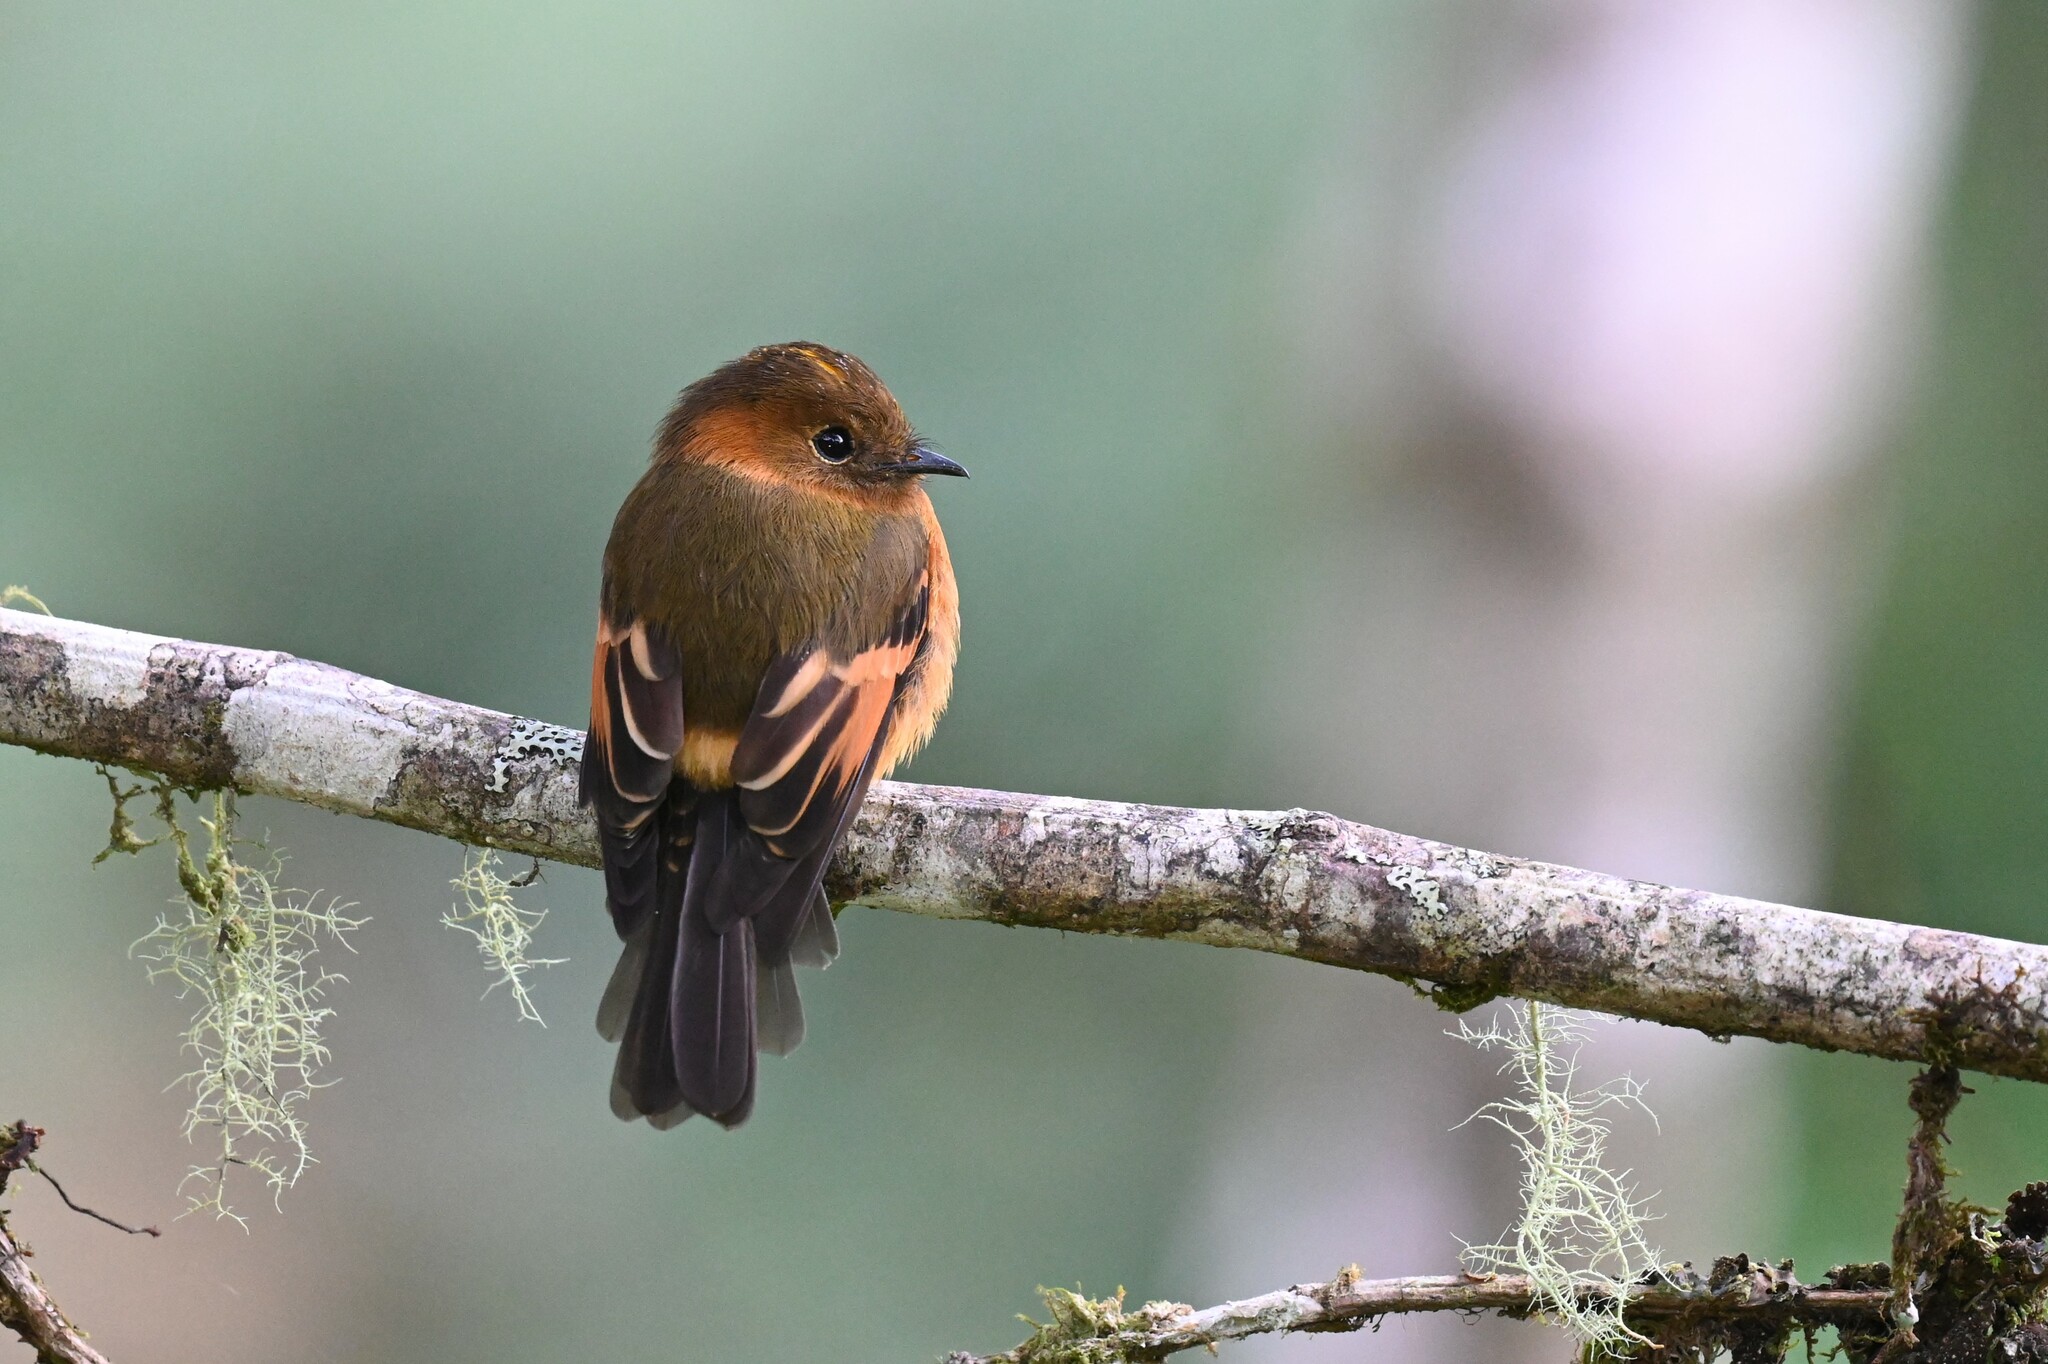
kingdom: Animalia
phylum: Chordata
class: Aves
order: Passeriformes
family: Tyrannidae
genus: Pyrrhomyias
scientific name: Pyrrhomyias cinnamomeus
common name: Cinnamon flycatcher
